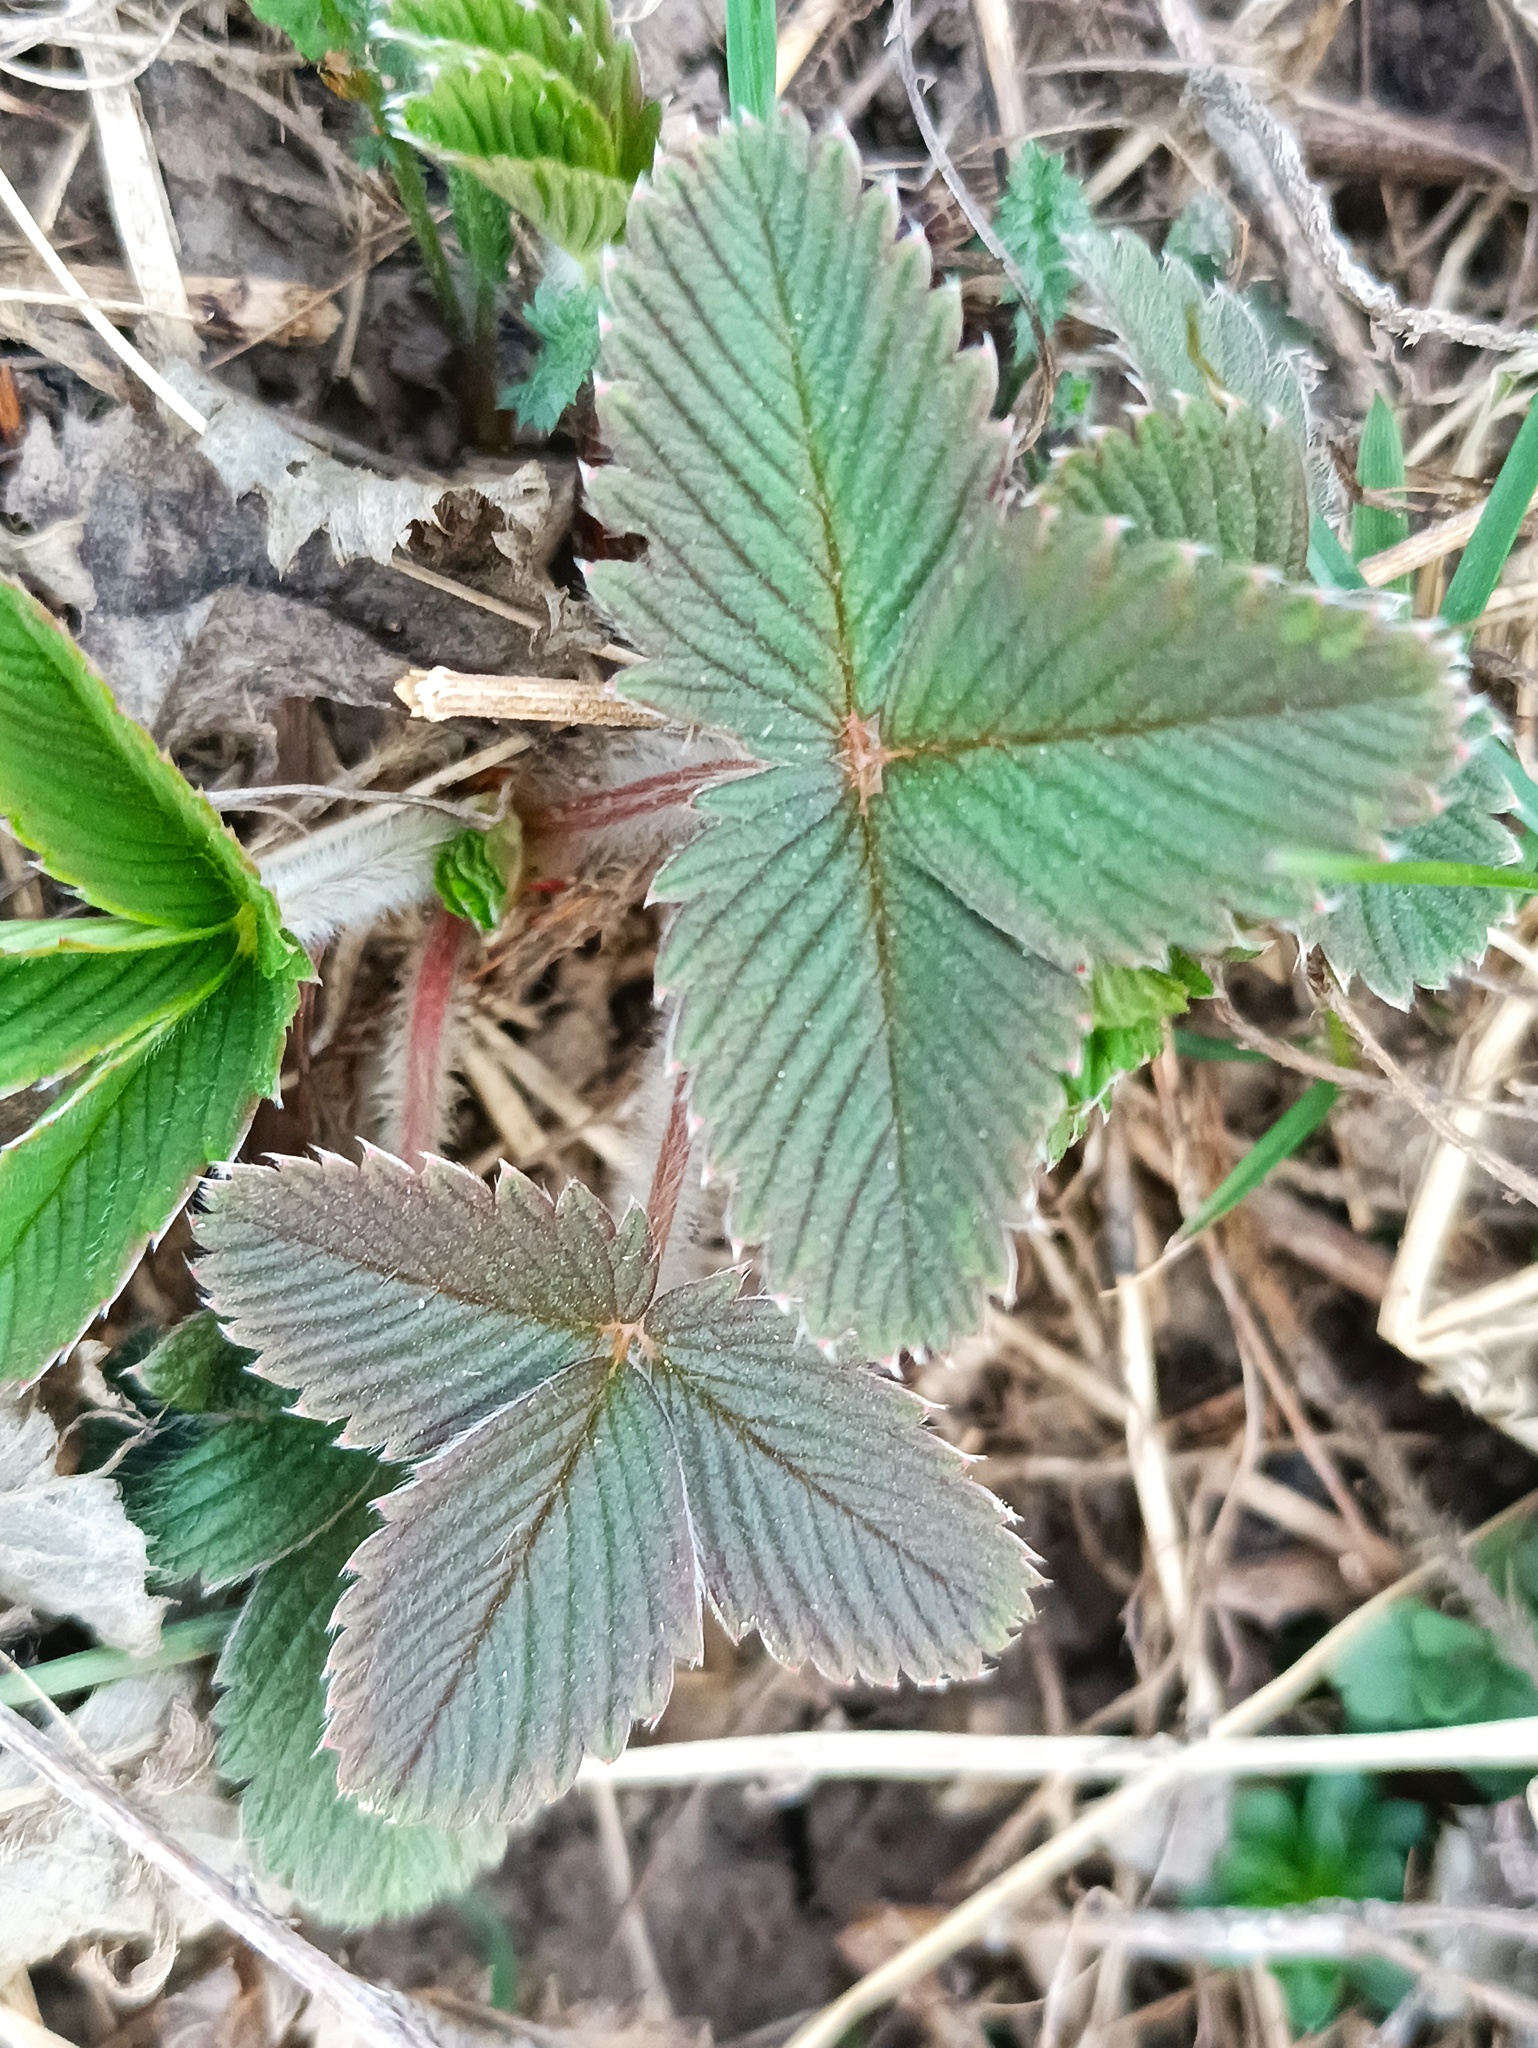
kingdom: Plantae
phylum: Tracheophyta
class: Magnoliopsida
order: Rosales
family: Rosaceae
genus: Fragaria
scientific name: Fragaria viridis
